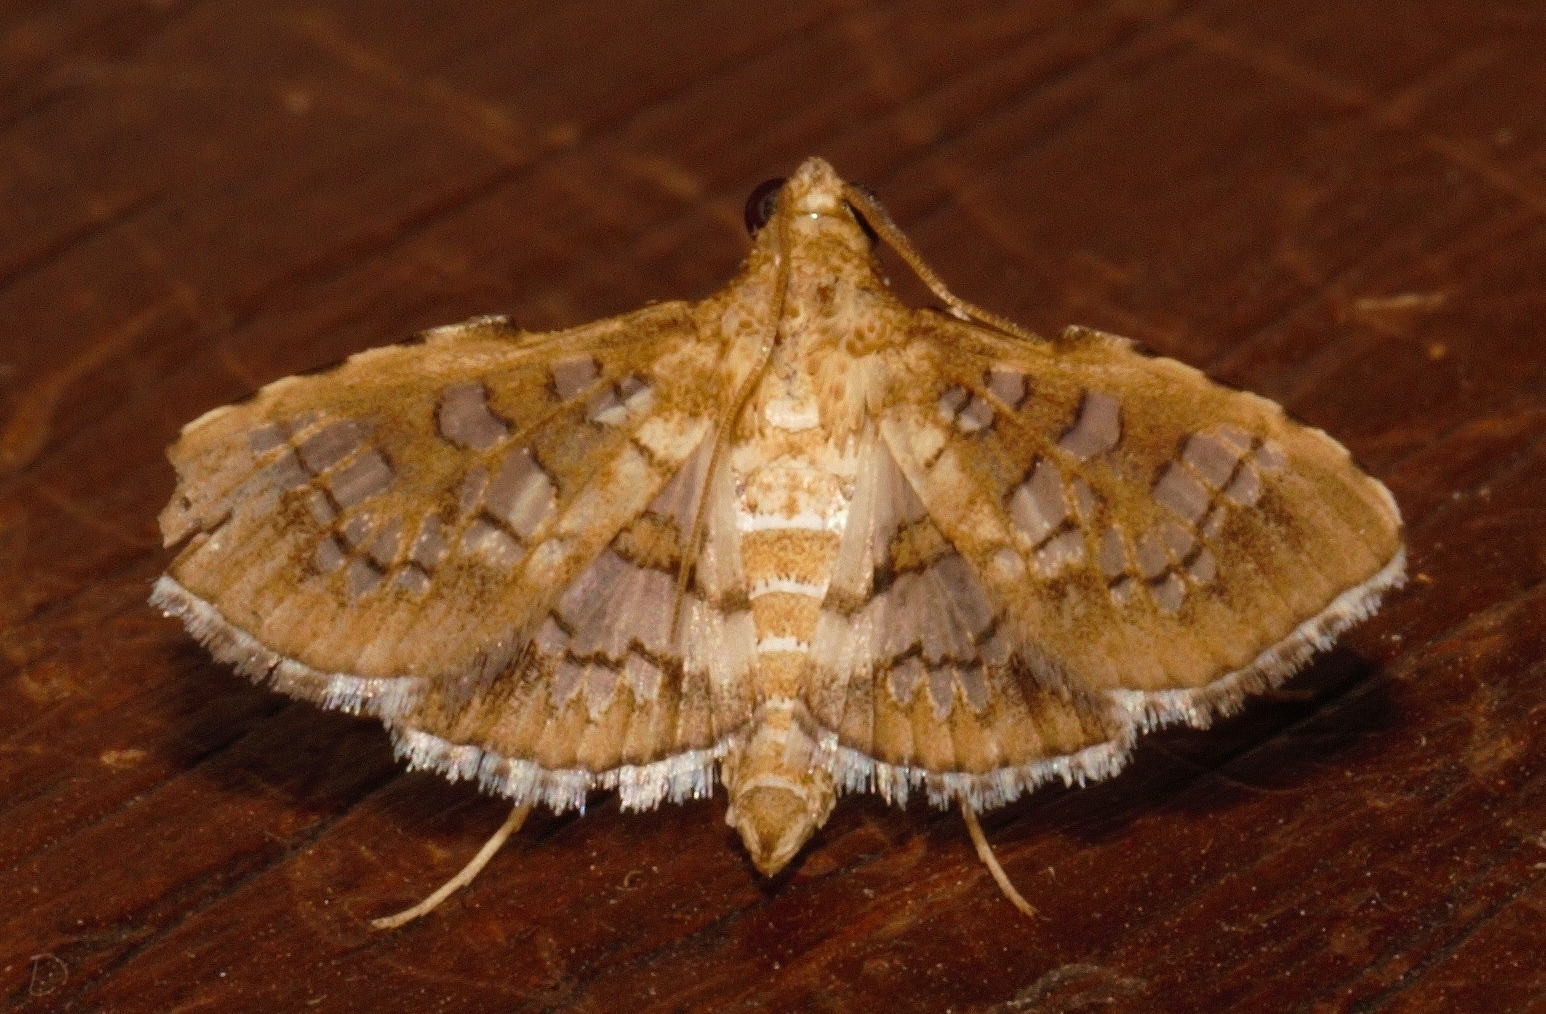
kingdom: Animalia
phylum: Arthropoda
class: Insecta
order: Lepidoptera
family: Crambidae
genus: Sameodes
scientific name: Sameodes cancellalis
